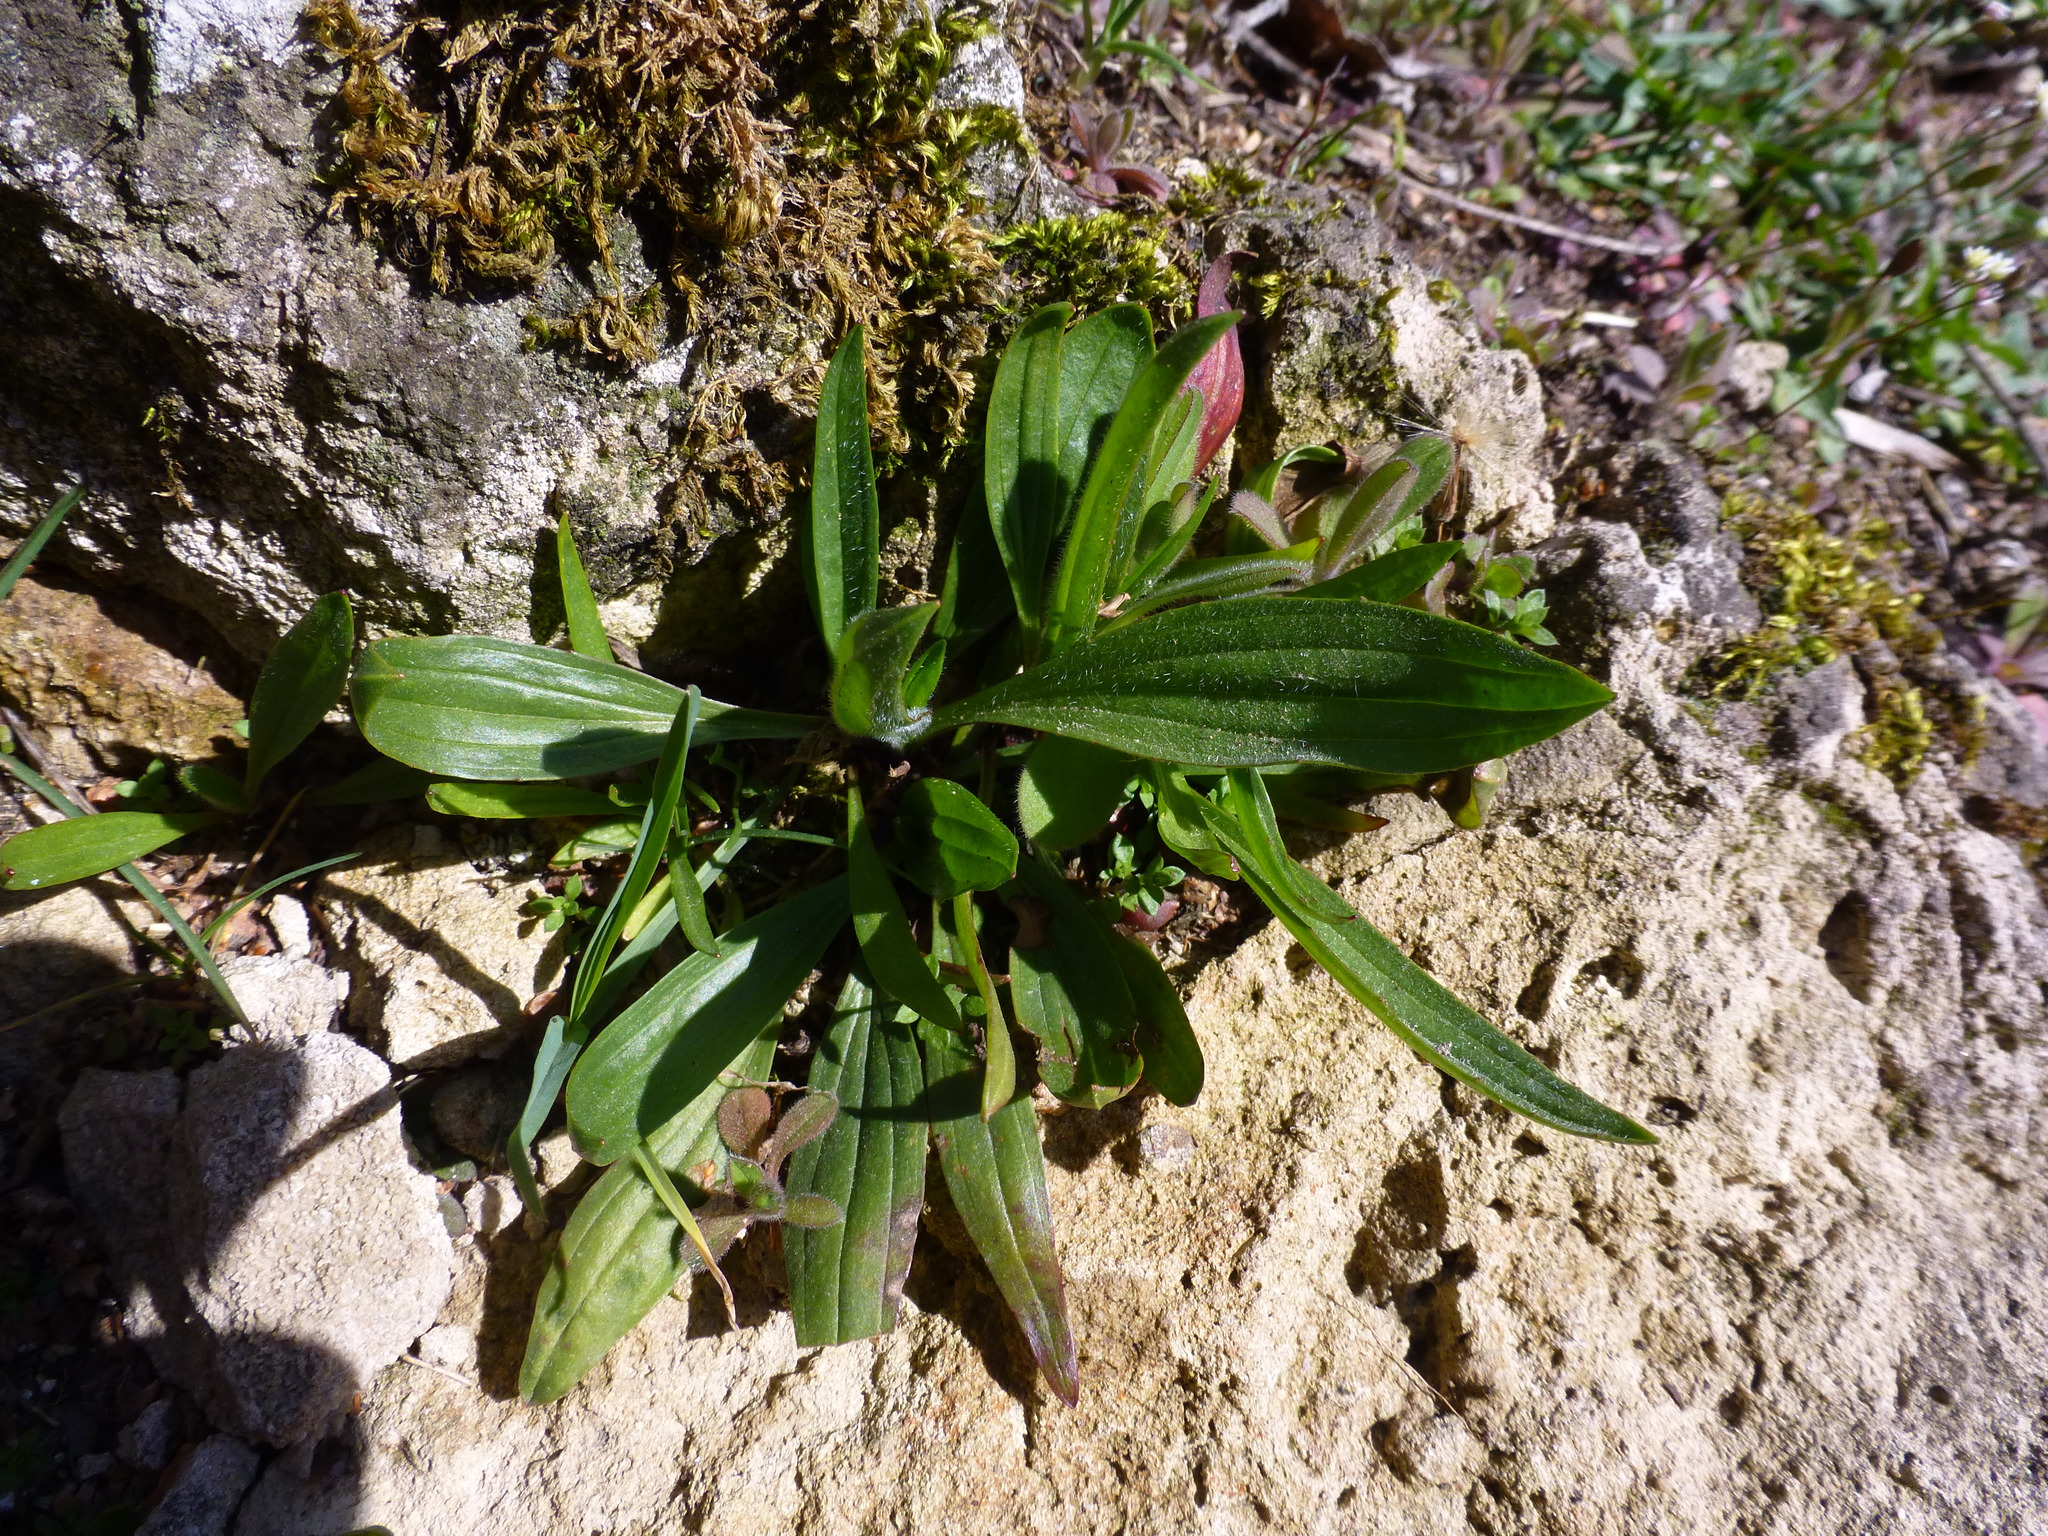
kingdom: Plantae
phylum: Tracheophyta
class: Magnoliopsida
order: Lamiales
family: Plantaginaceae
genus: Plantago
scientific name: Plantago lanceolata
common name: Ribwort plantain
